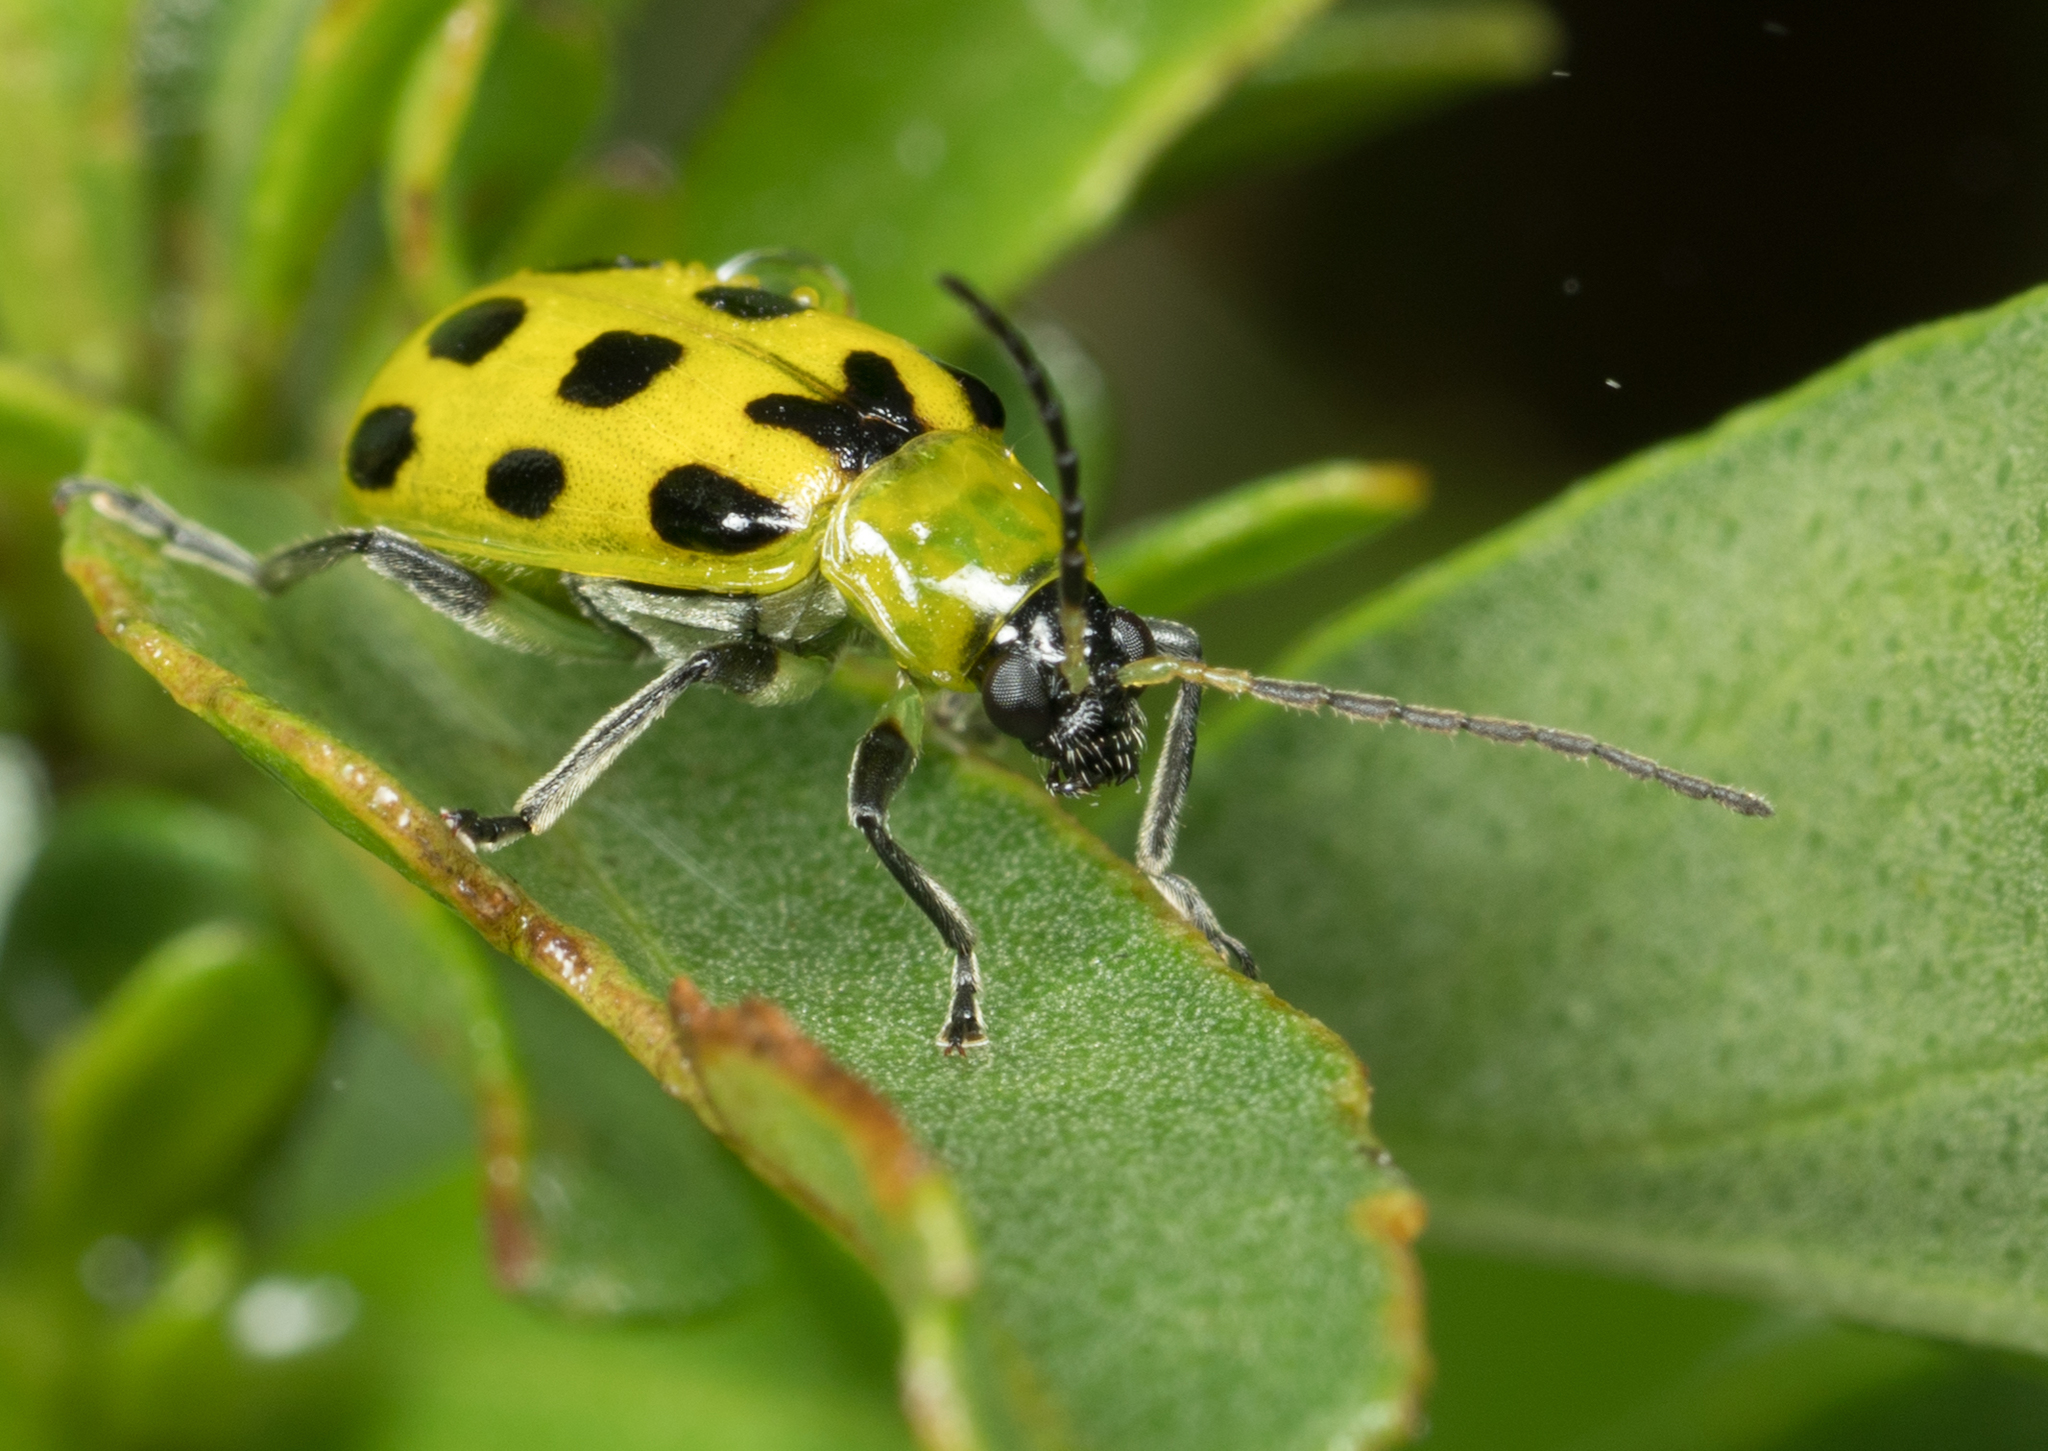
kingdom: Animalia
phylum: Arthropoda
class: Insecta
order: Coleoptera
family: Chrysomelidae
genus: Diabrotica
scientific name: Diabrotica undecimpunctata
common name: Spotted cucumber beetle
